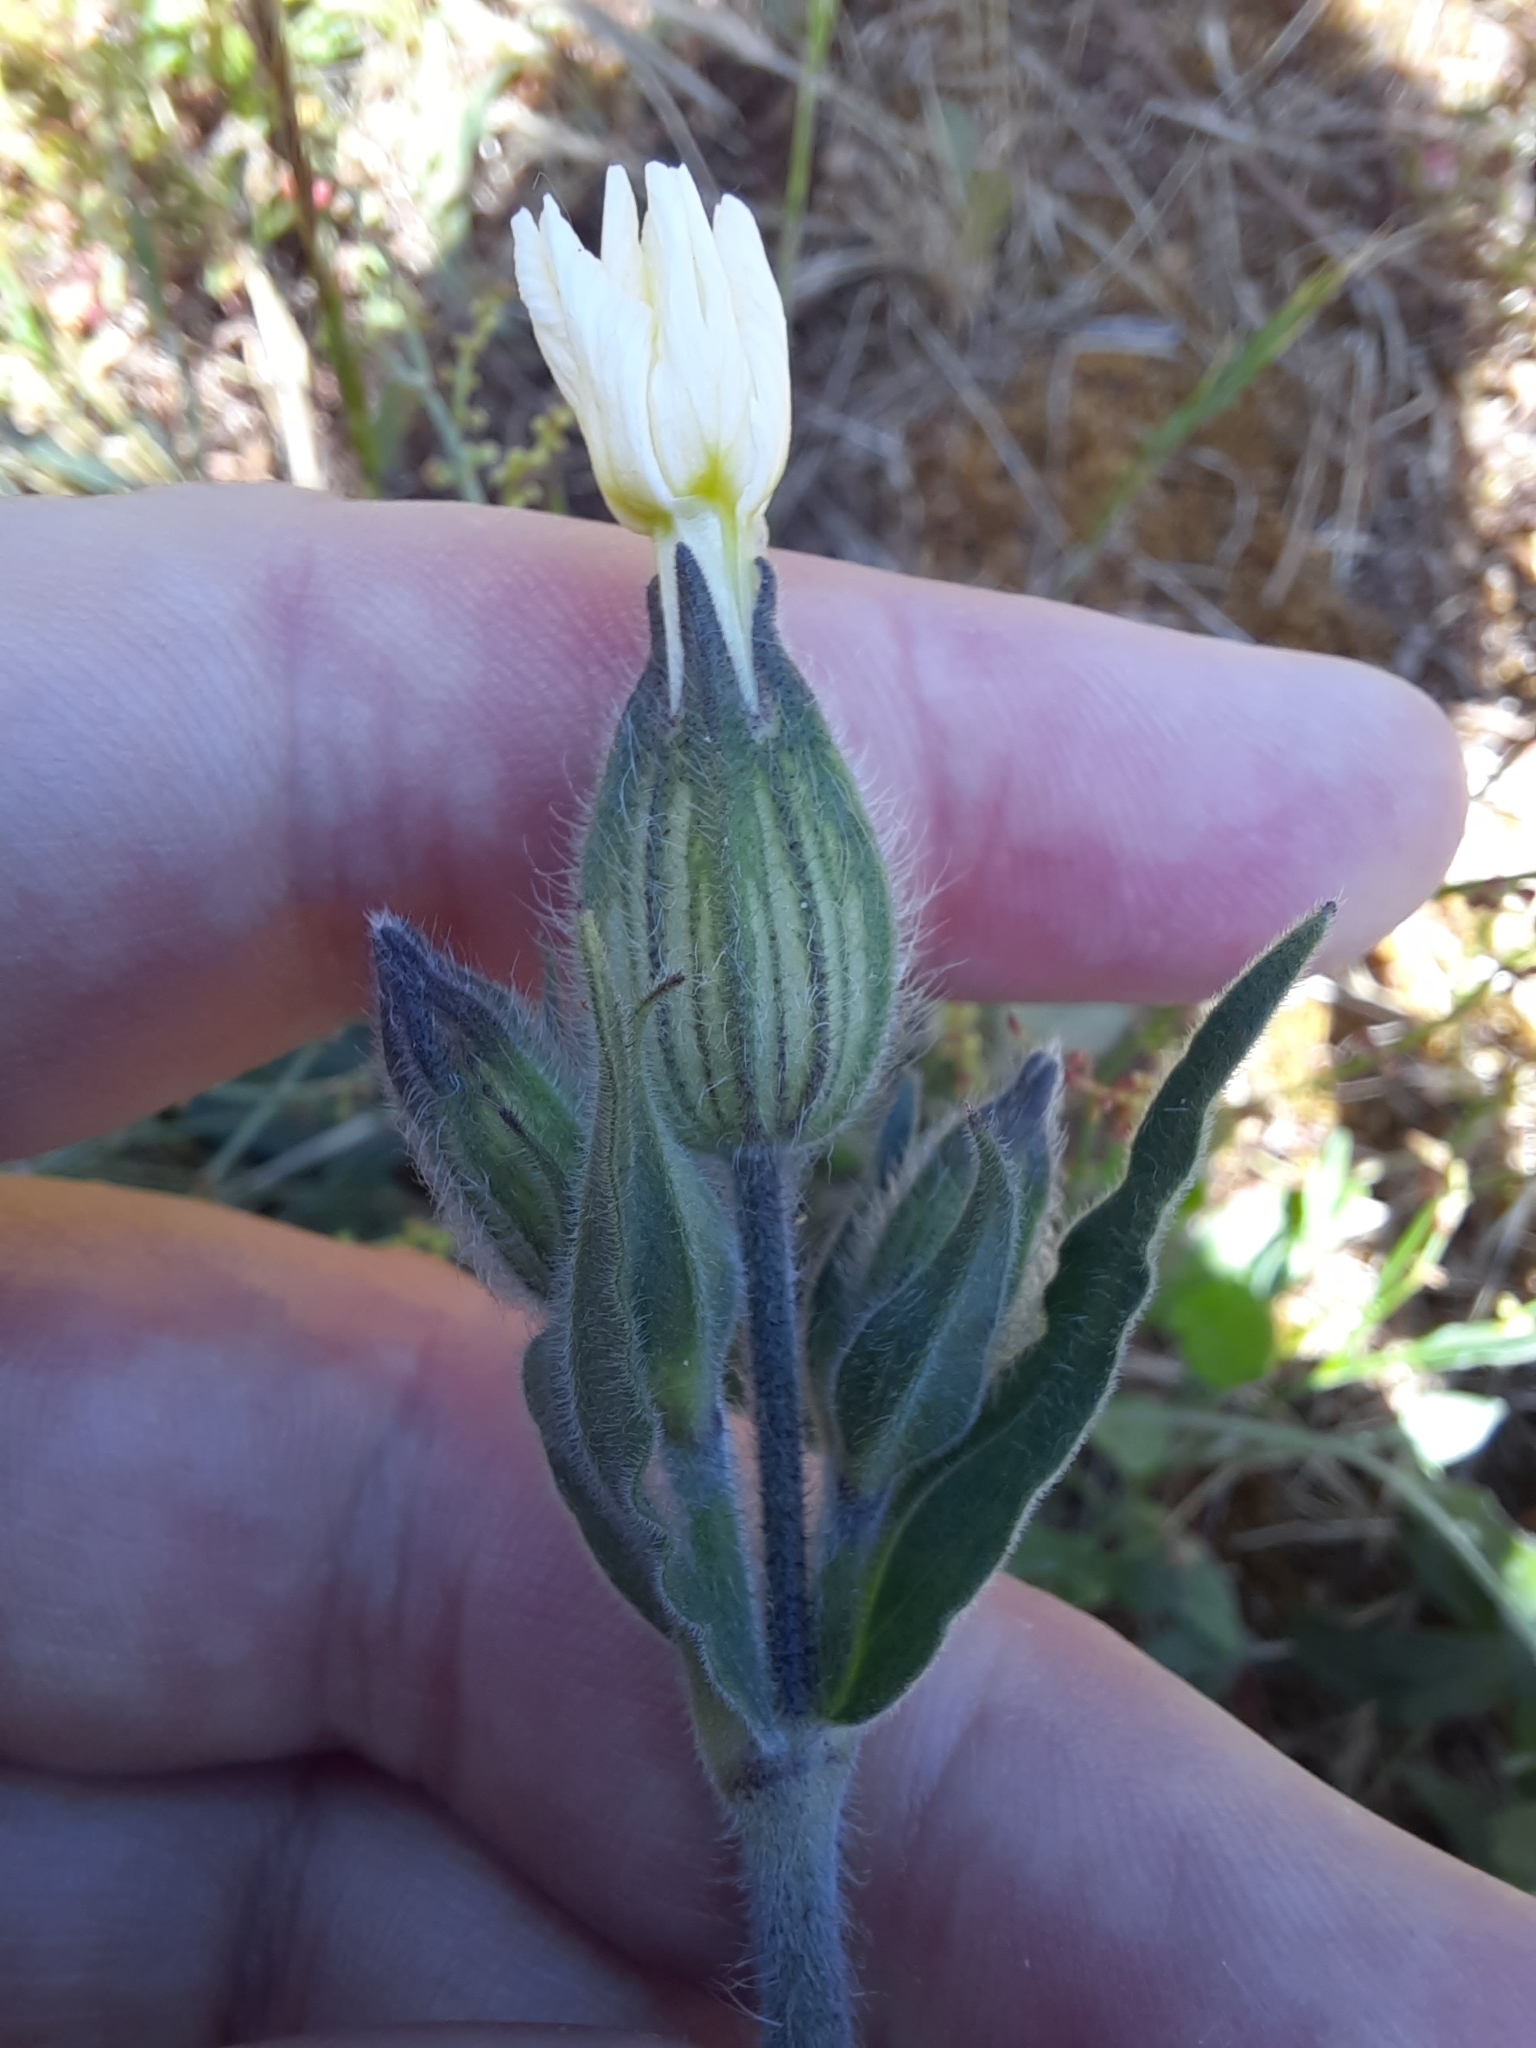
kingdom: Plantae
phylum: Tracheophyta
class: Magnoliopsida
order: Caryophyllales
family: Caryophyllaceae
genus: Silene
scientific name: Silene latifolia
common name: White campion
